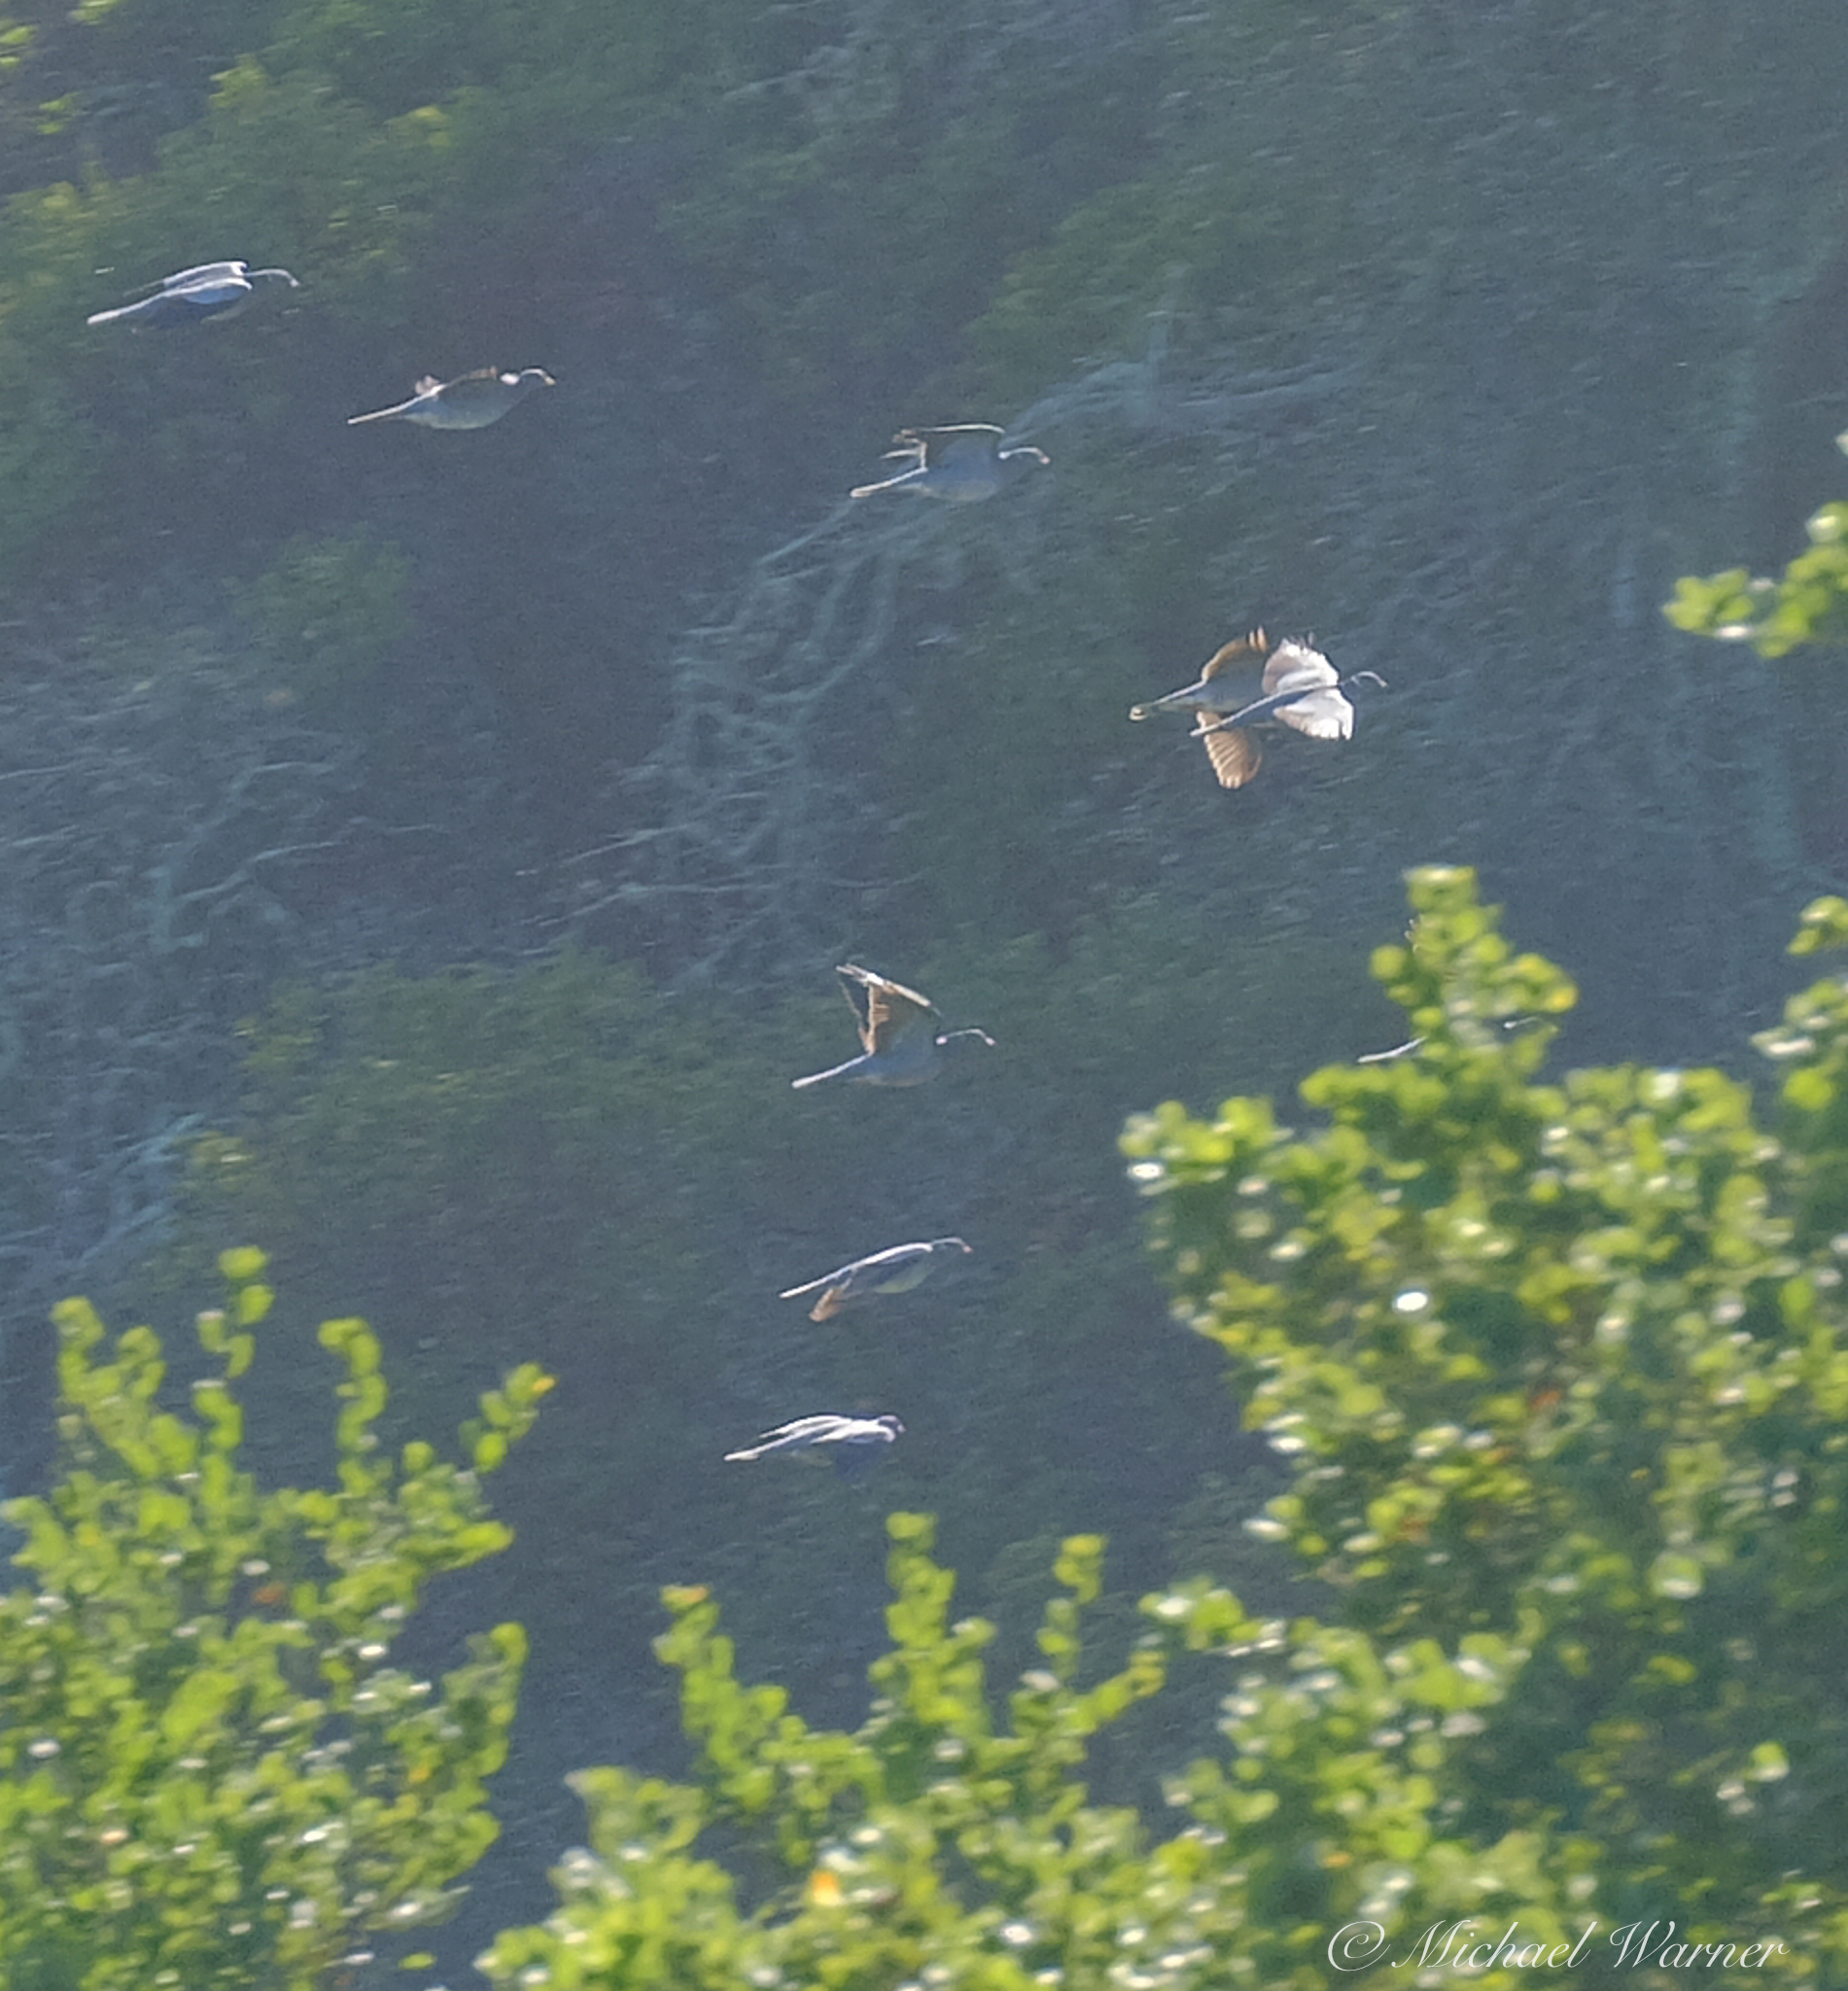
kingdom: Animalia
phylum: Chordata
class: Aves
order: Columbiformes
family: Columbidae
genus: Patagioenas
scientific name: Patagioenas fasciata
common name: Band-tailed pigeon
